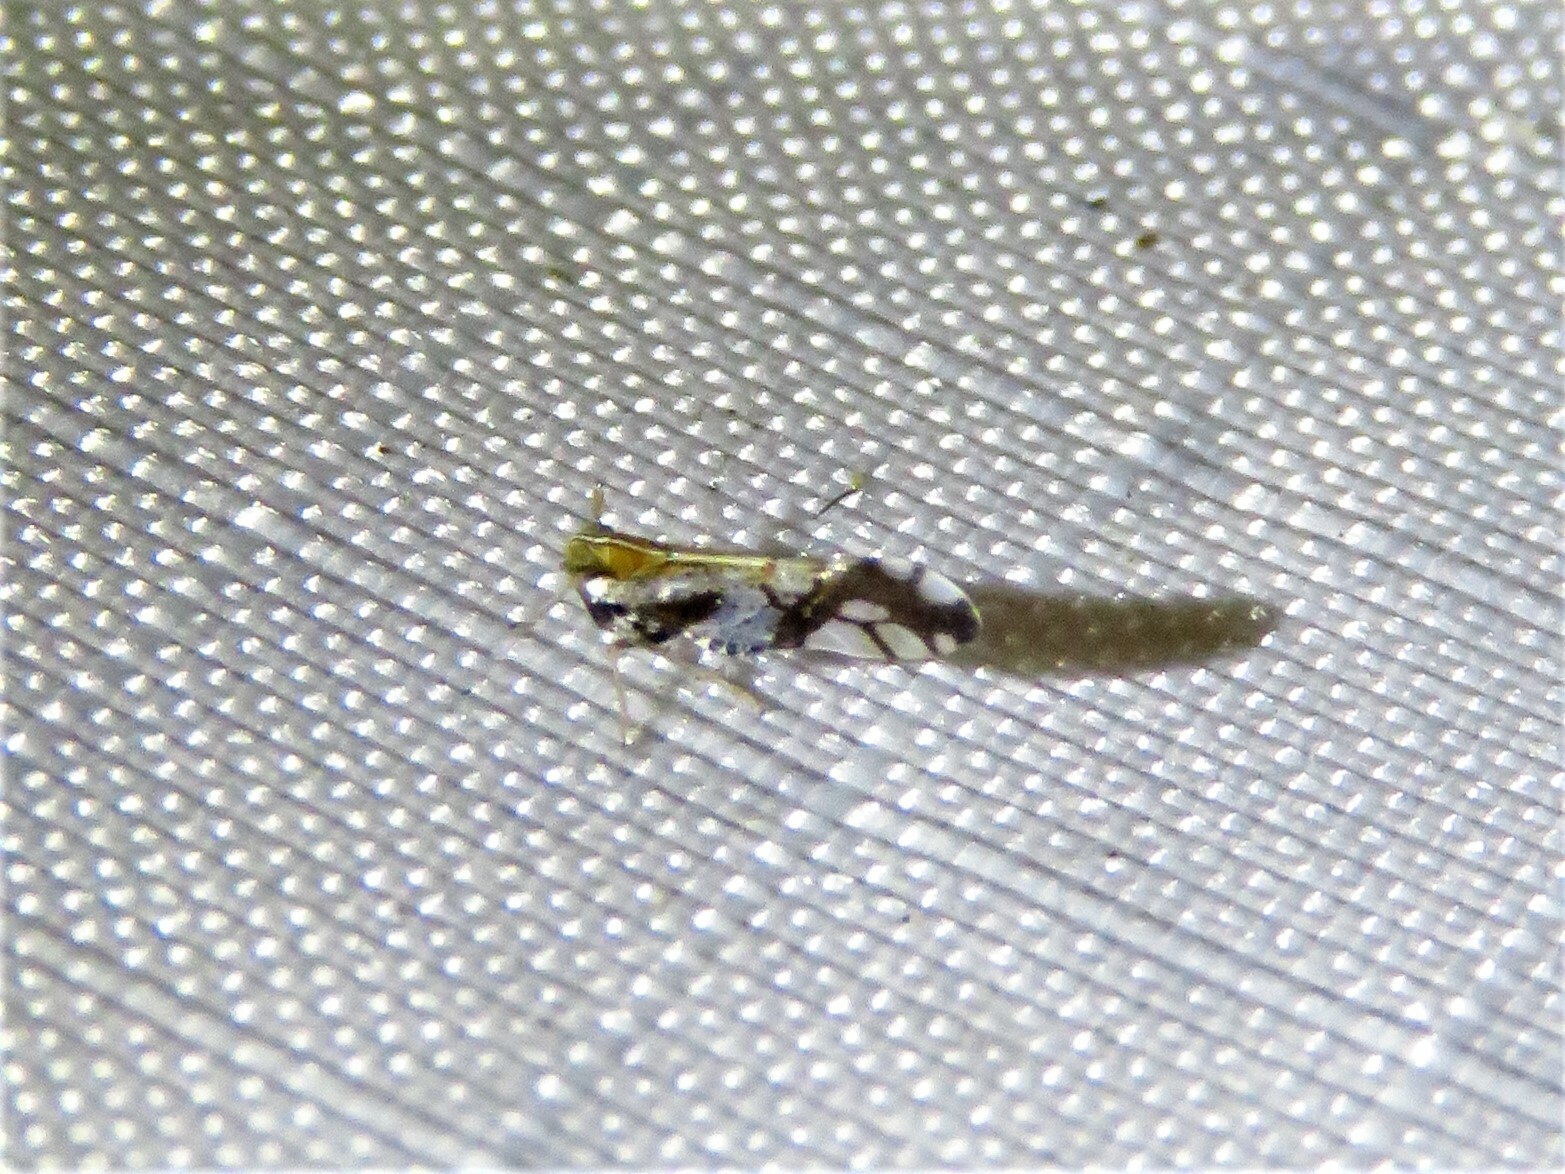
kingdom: Animalia
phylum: Arthropoda
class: Insecta
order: Hemiptera
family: Delphacidae
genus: Liburniella
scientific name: Liburniella ornata
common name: Ornate planthopper
